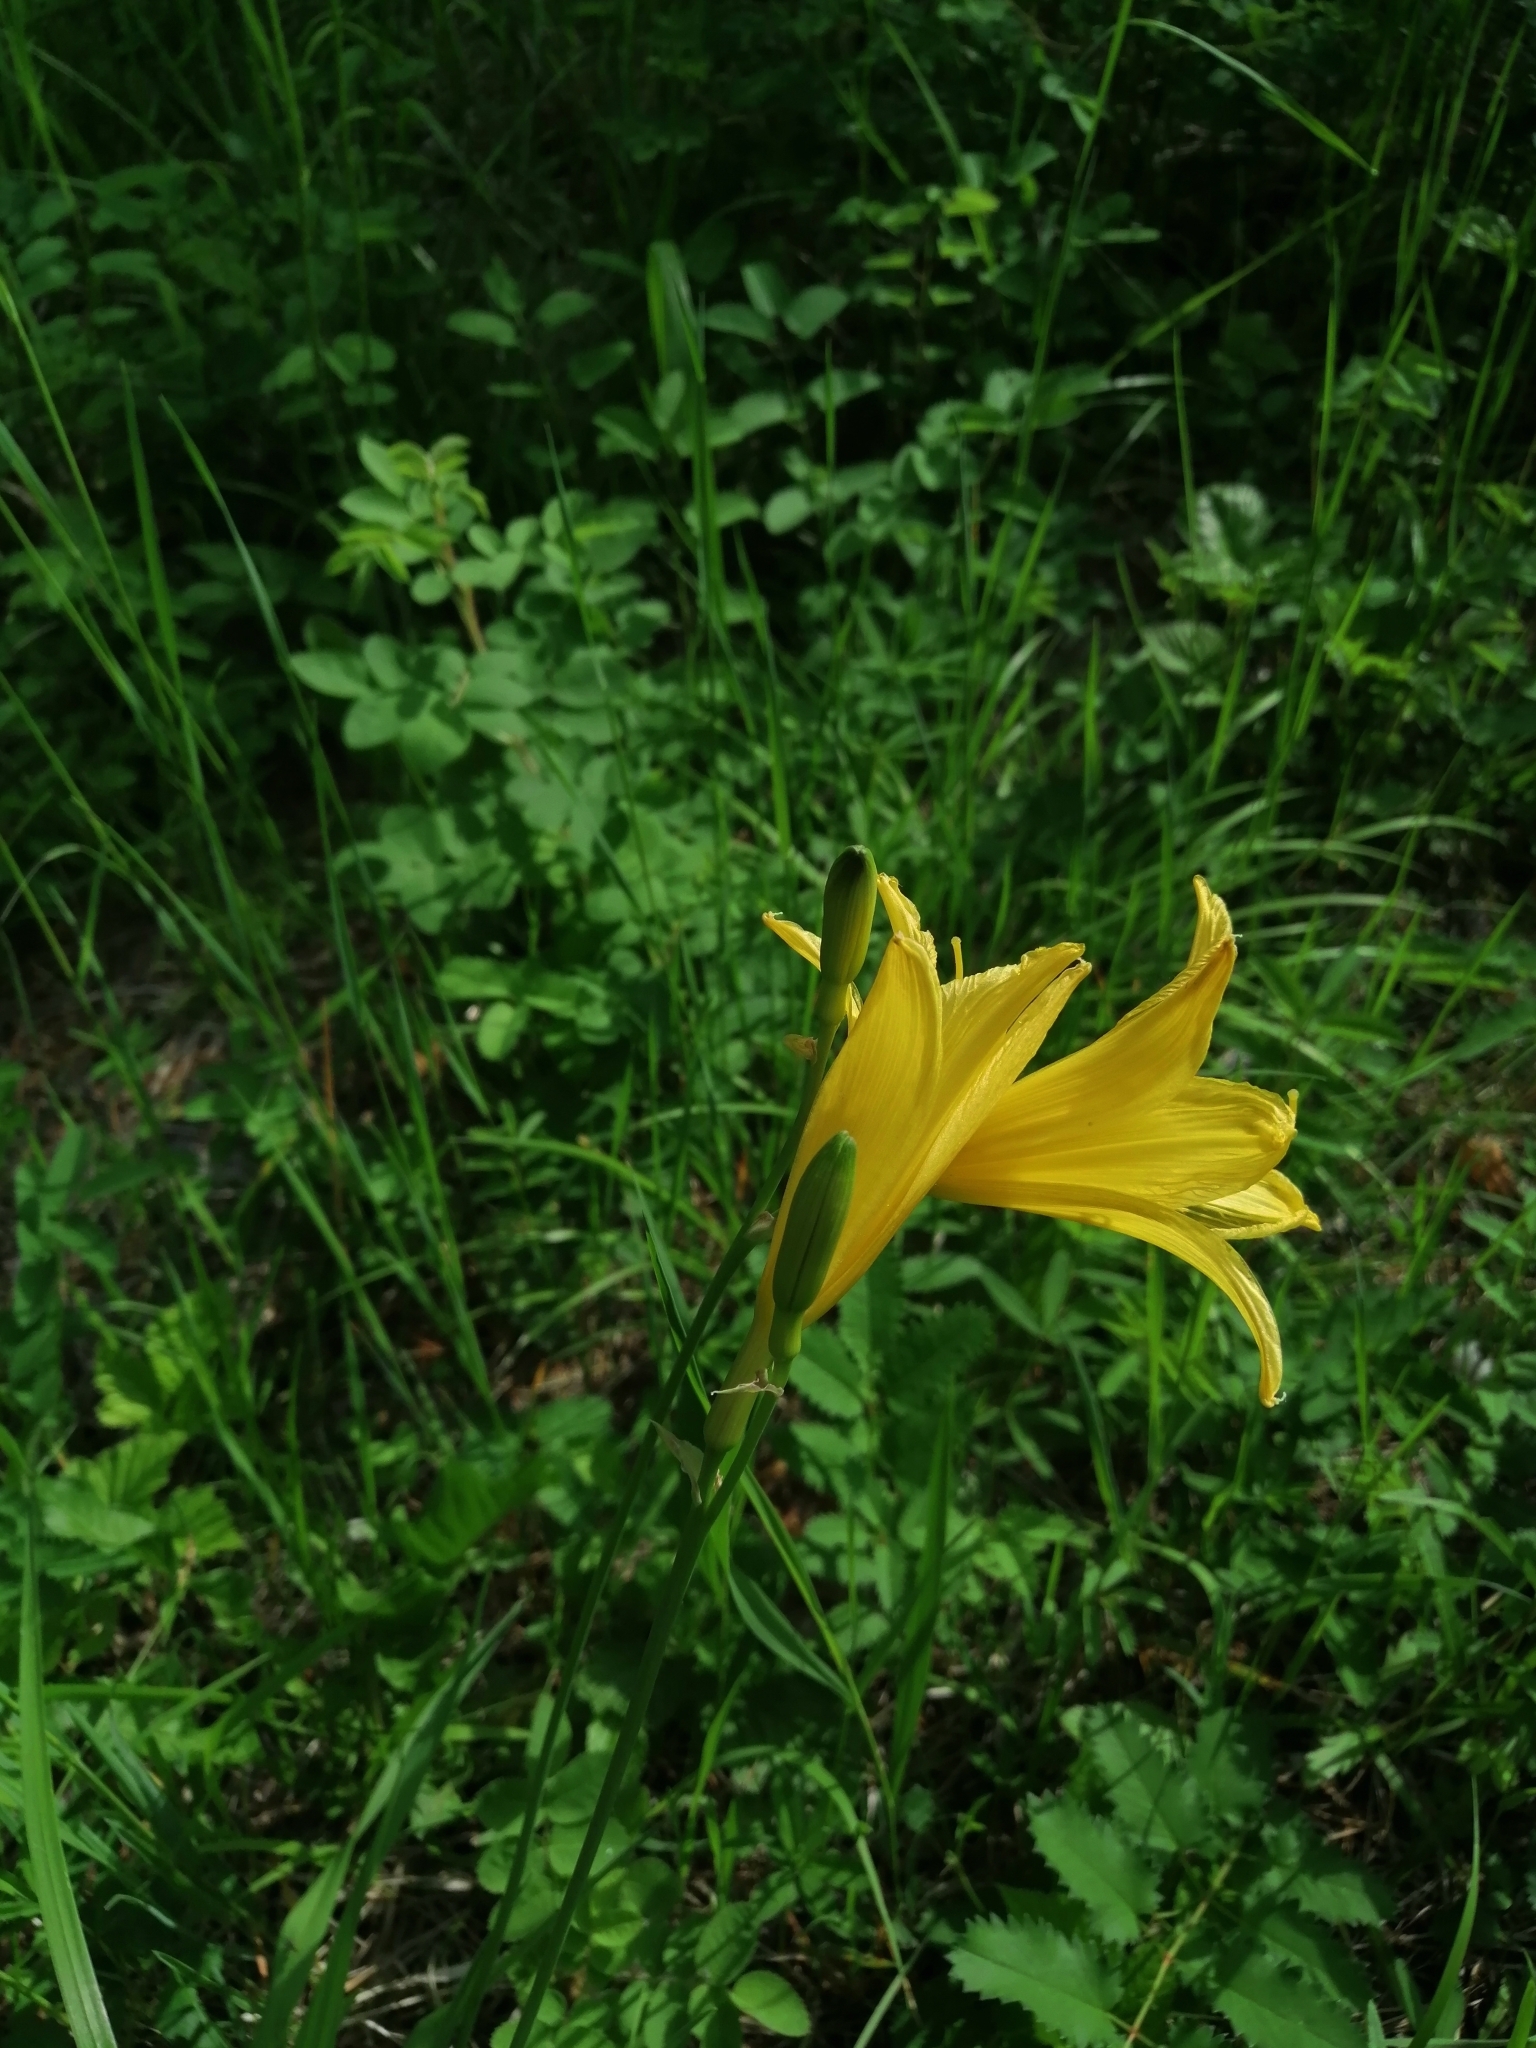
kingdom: Plantae
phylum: Tracheophyta
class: Liliopsida
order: Asparagales
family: Asphodelaceae
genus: Hemerocallis
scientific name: Hemerocallis minor
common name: Small daylily
